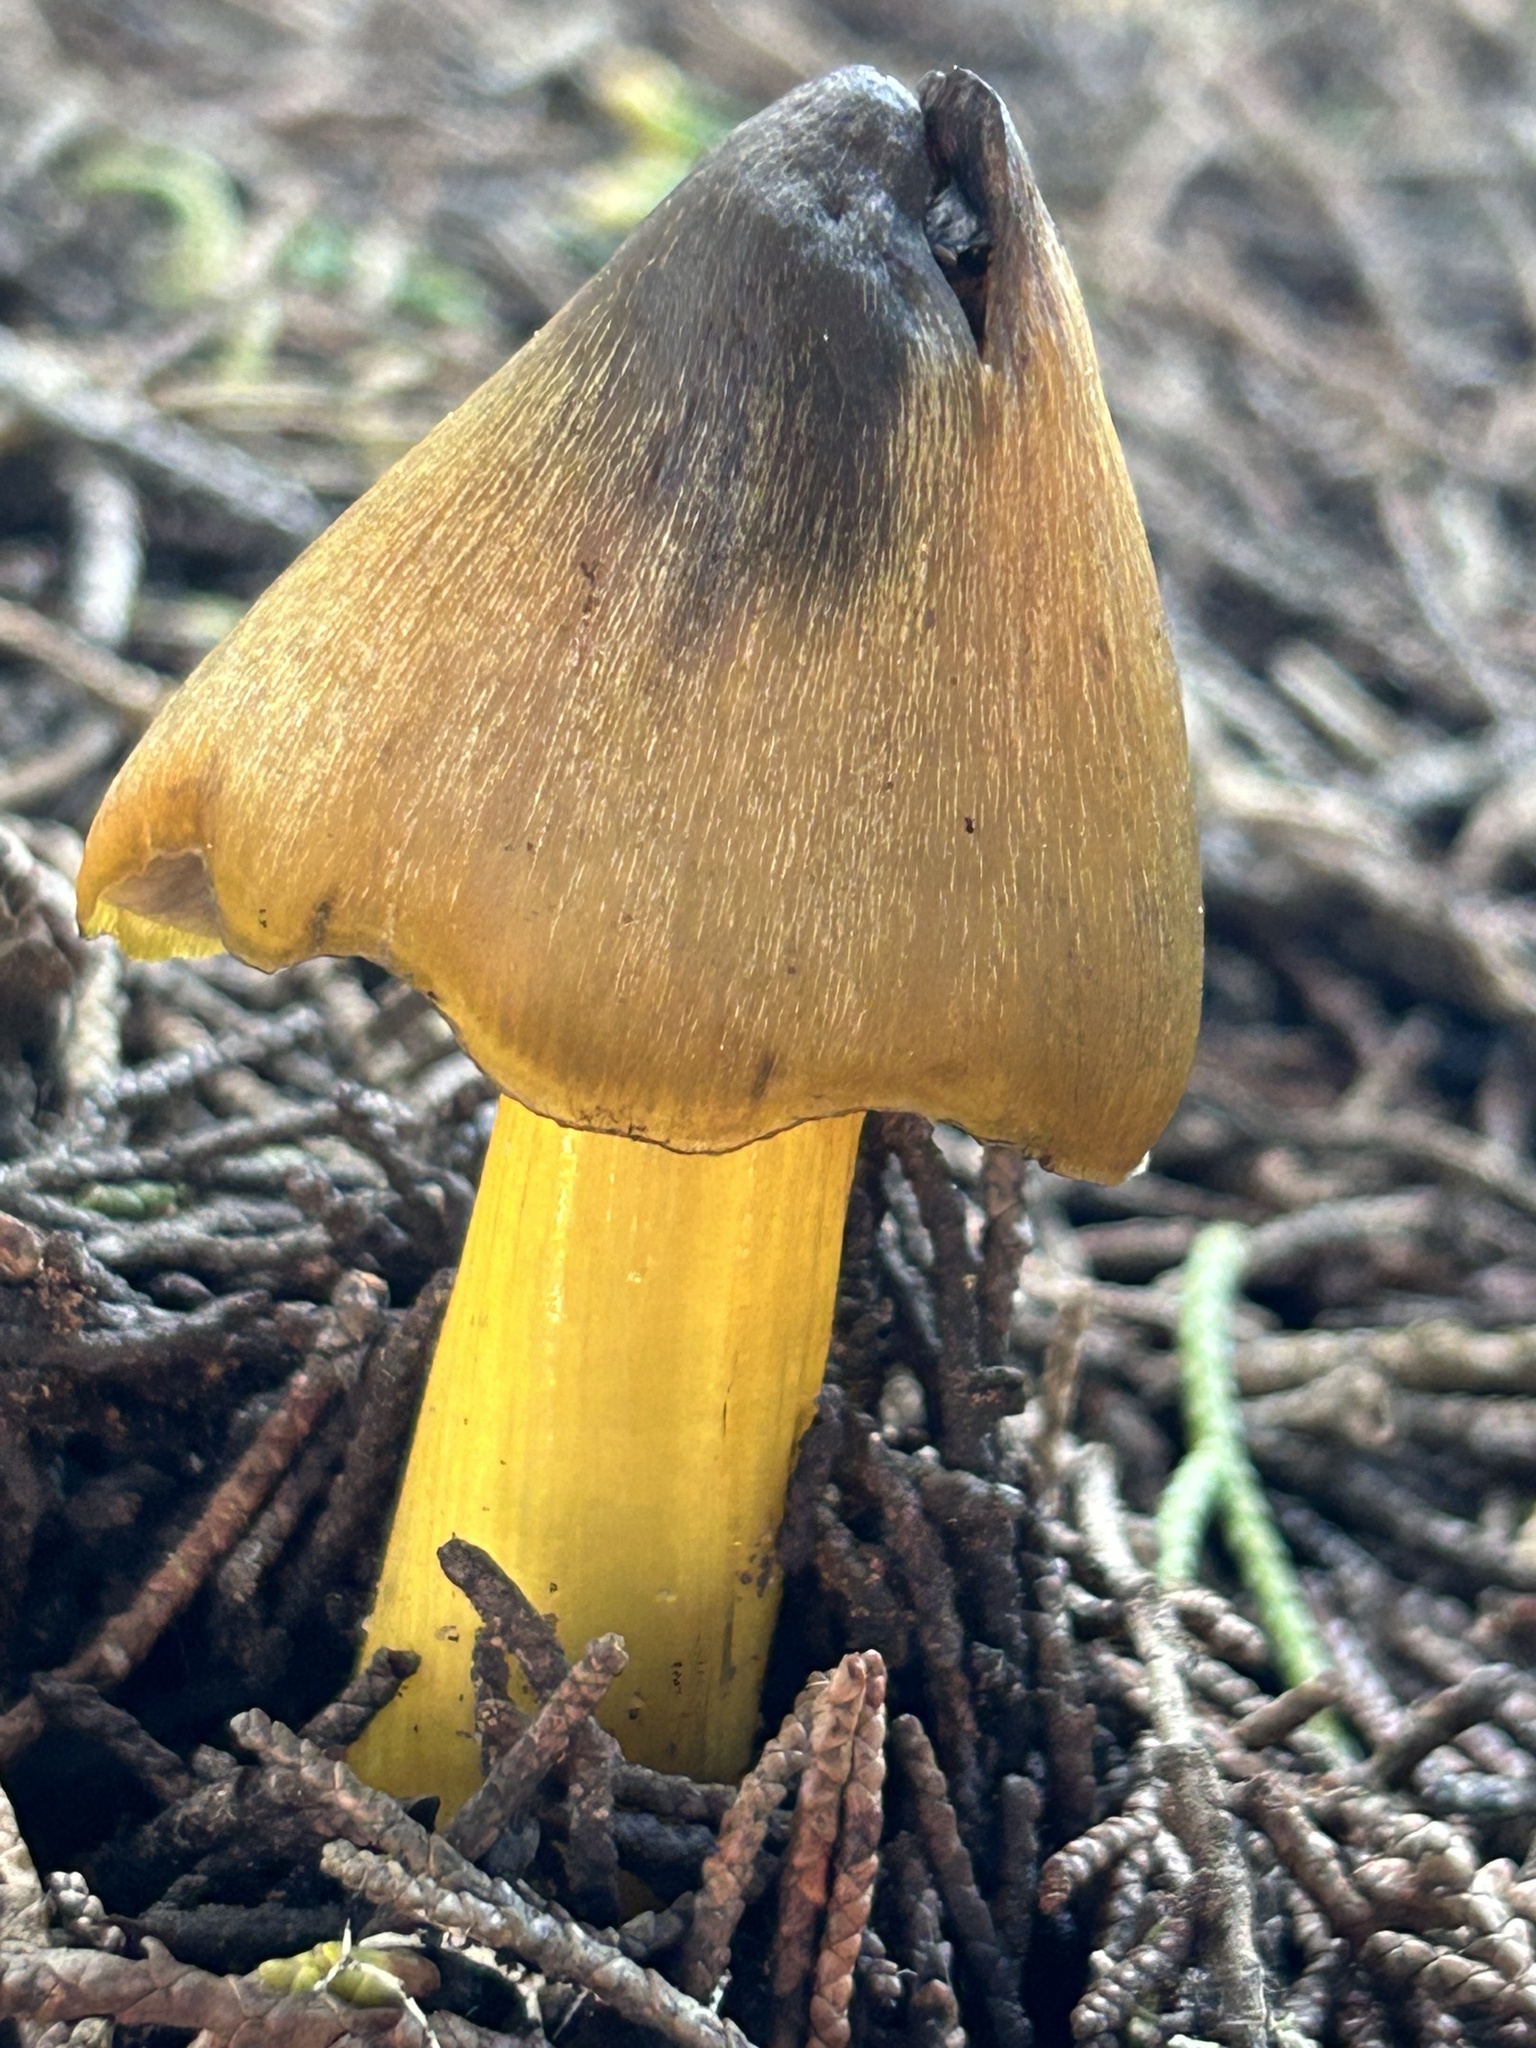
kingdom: Fungi
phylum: Basidiomycota
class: Agaricomycetes
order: Agaricales
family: Hygrophoraceae
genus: Hygrocybe
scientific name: Hygrocybe singeri
